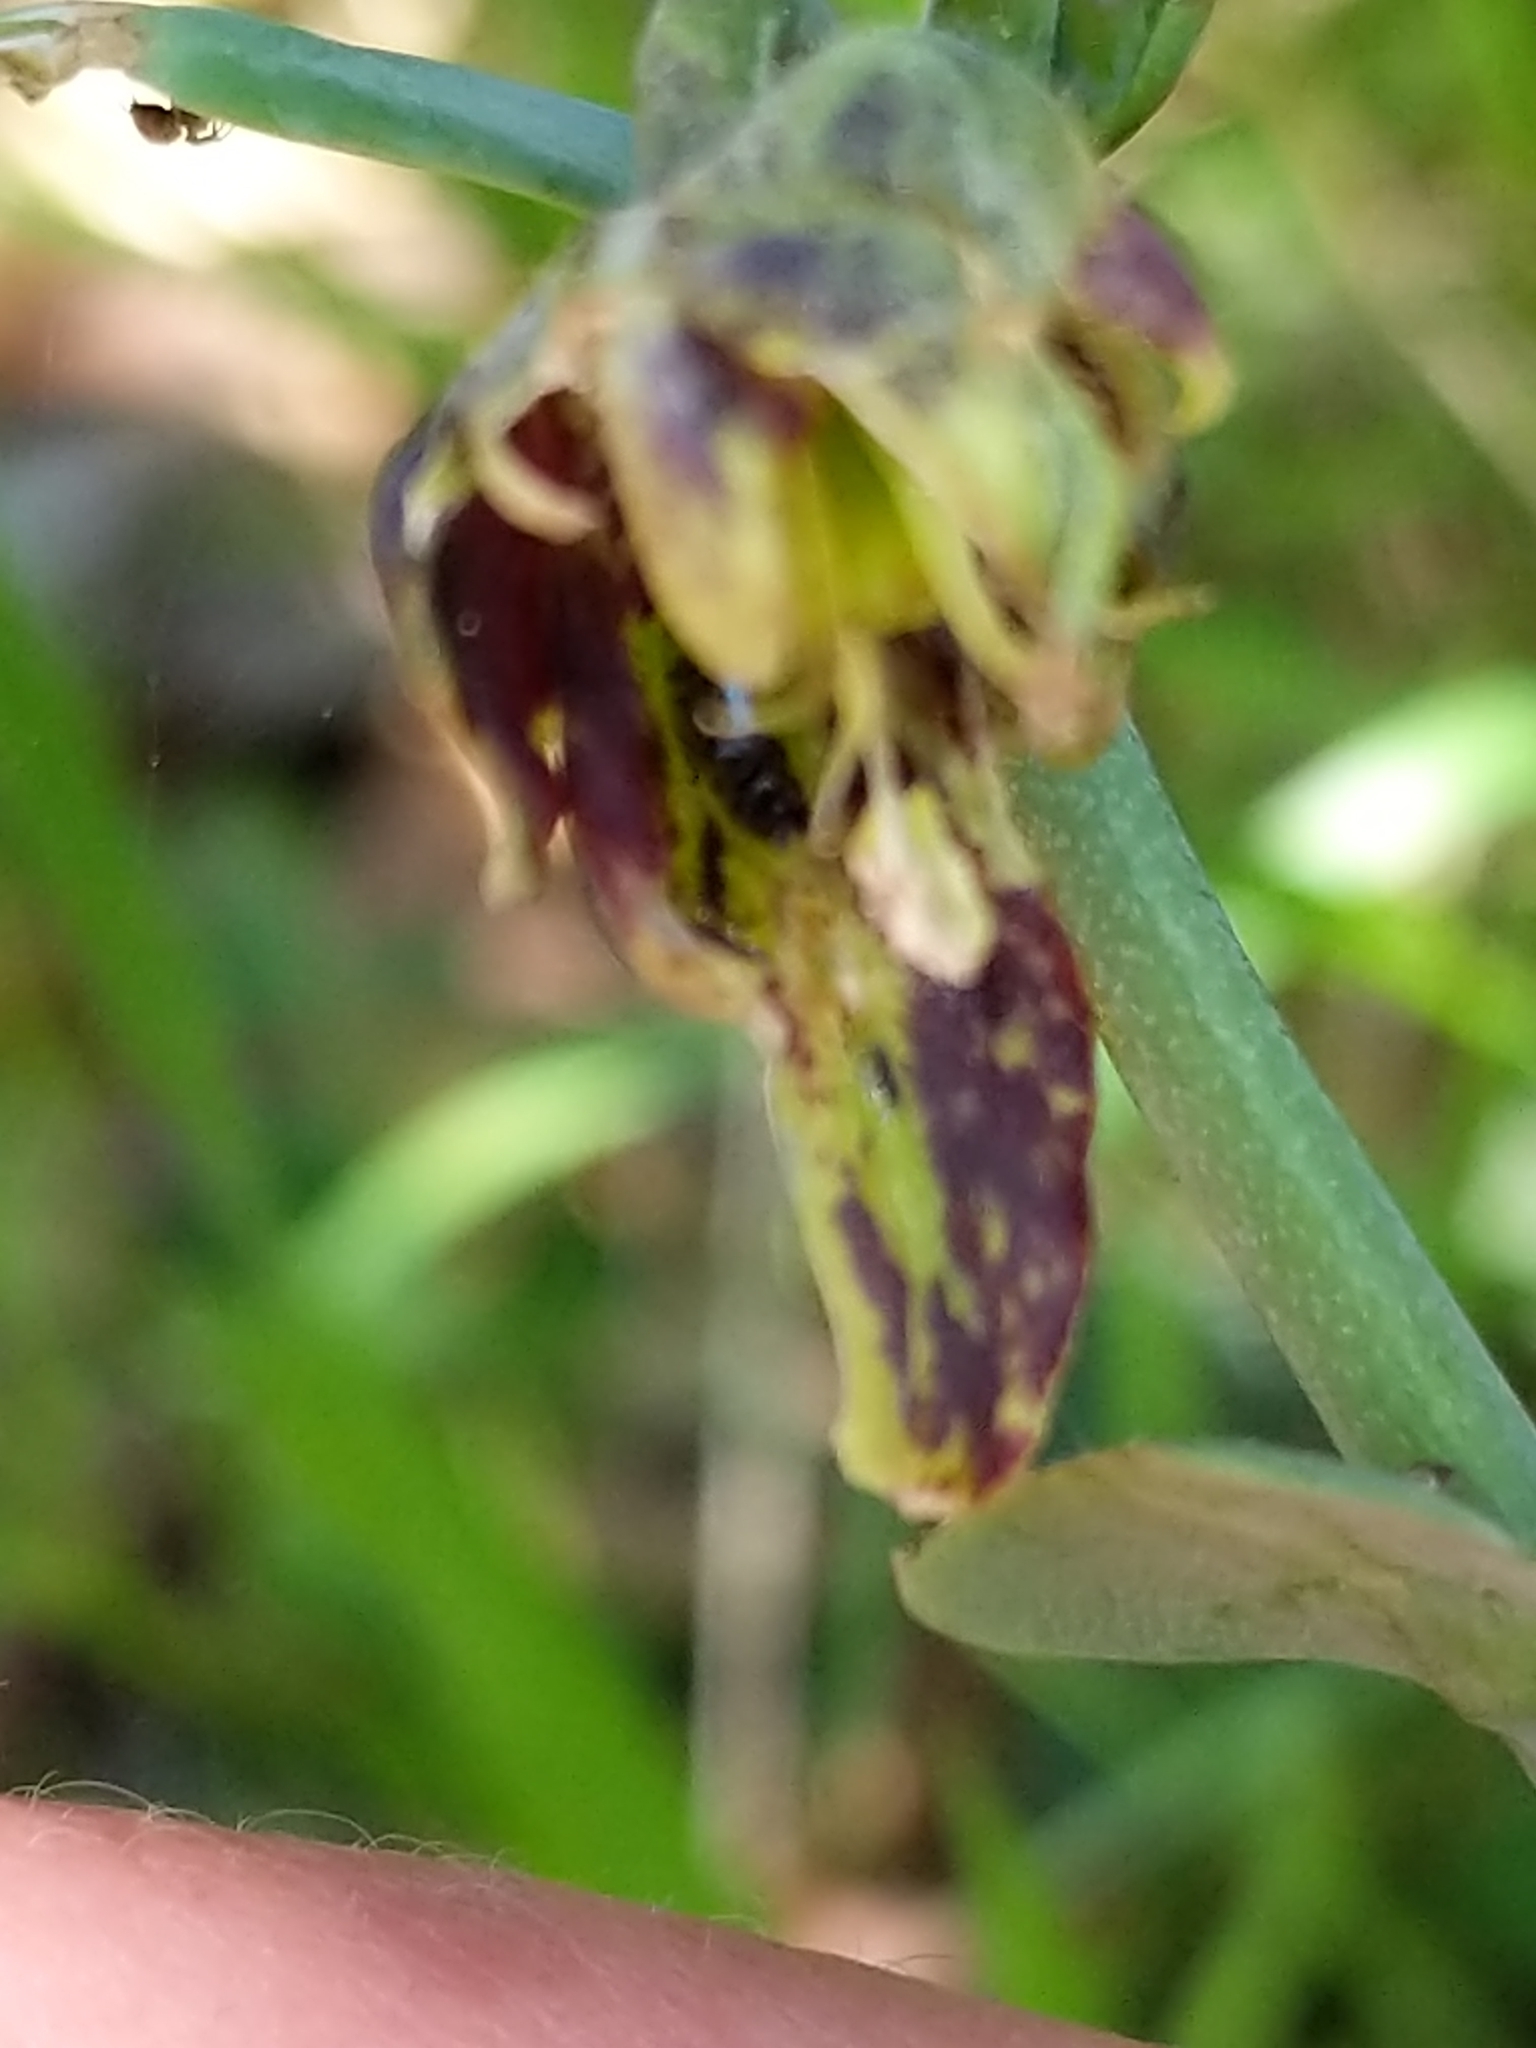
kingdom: Plantae
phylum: Tracheophyta
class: Liliopsida
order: Liliales
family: Liliaceae
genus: Fritillaria
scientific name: Fritillaria affinis
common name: Ojai fritillary
